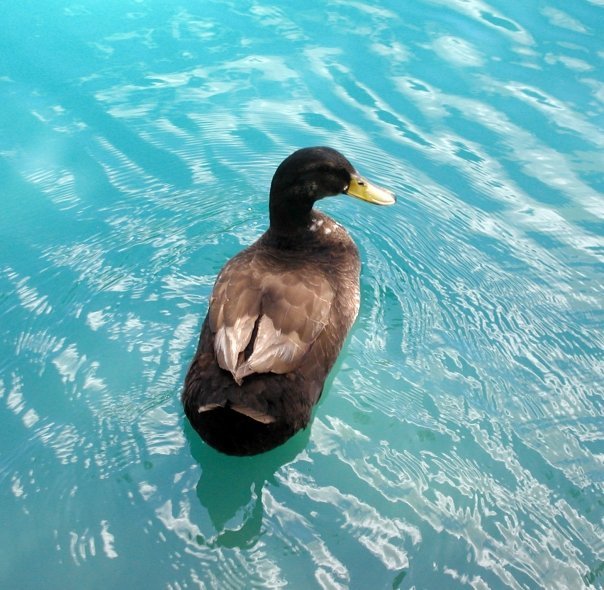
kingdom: Animalia
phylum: Chordata
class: Aves
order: Anseriformes
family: Anatidae
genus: Anas
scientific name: Anas platyrhynchos
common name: Mallard
